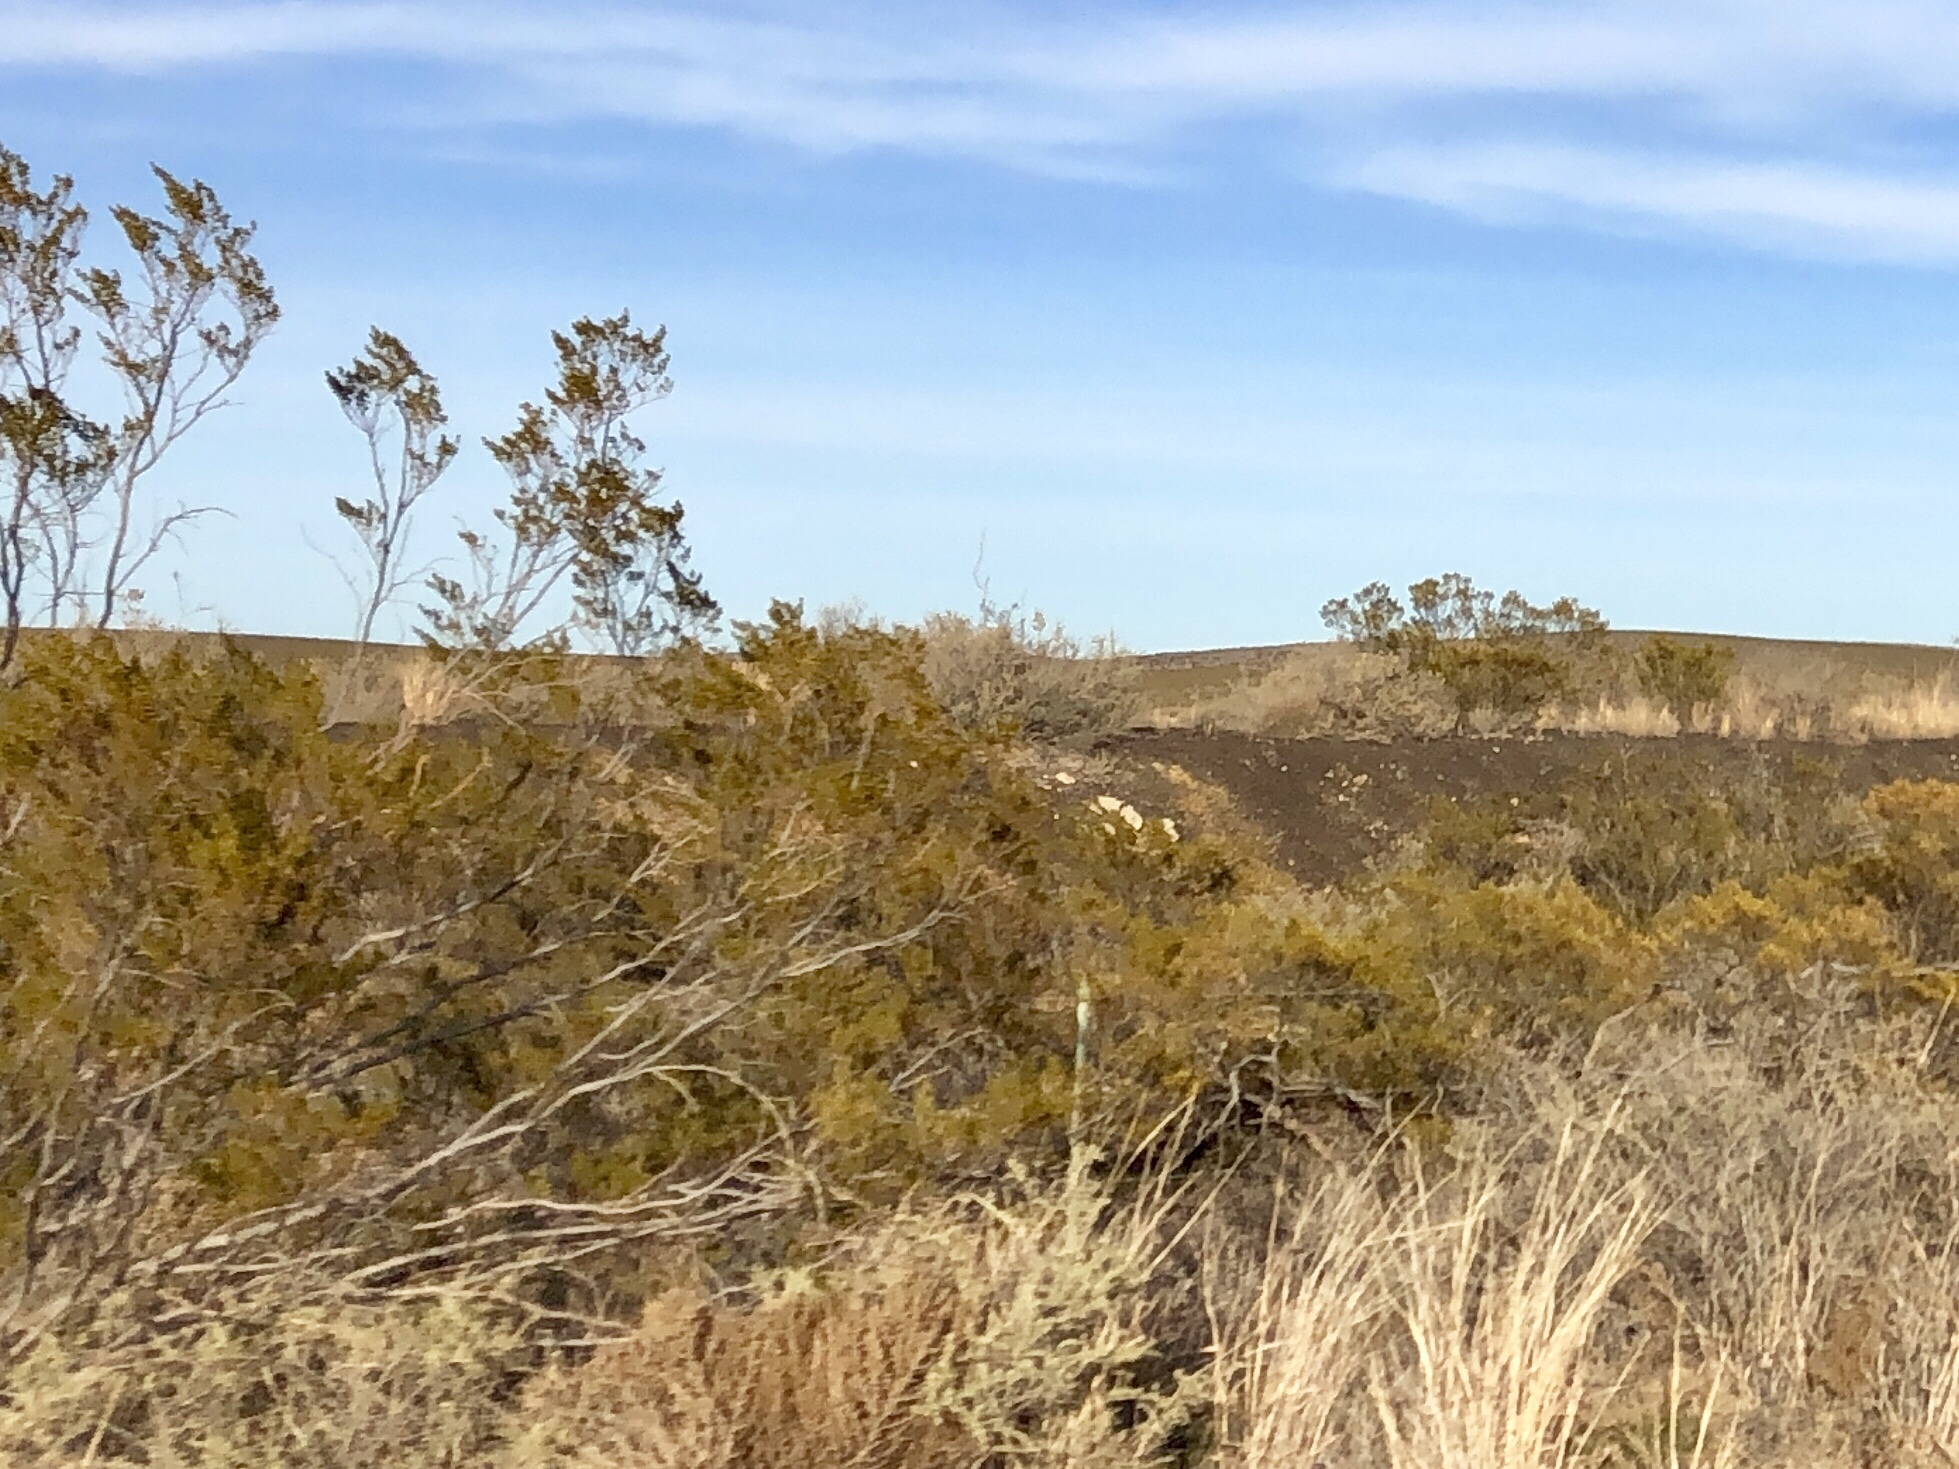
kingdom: Plantae
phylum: Tracheophyta
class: Magnoliopsida
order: Zygophyllales
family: Zygophyllaceae
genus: Larrea
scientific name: Larrea tridentata
